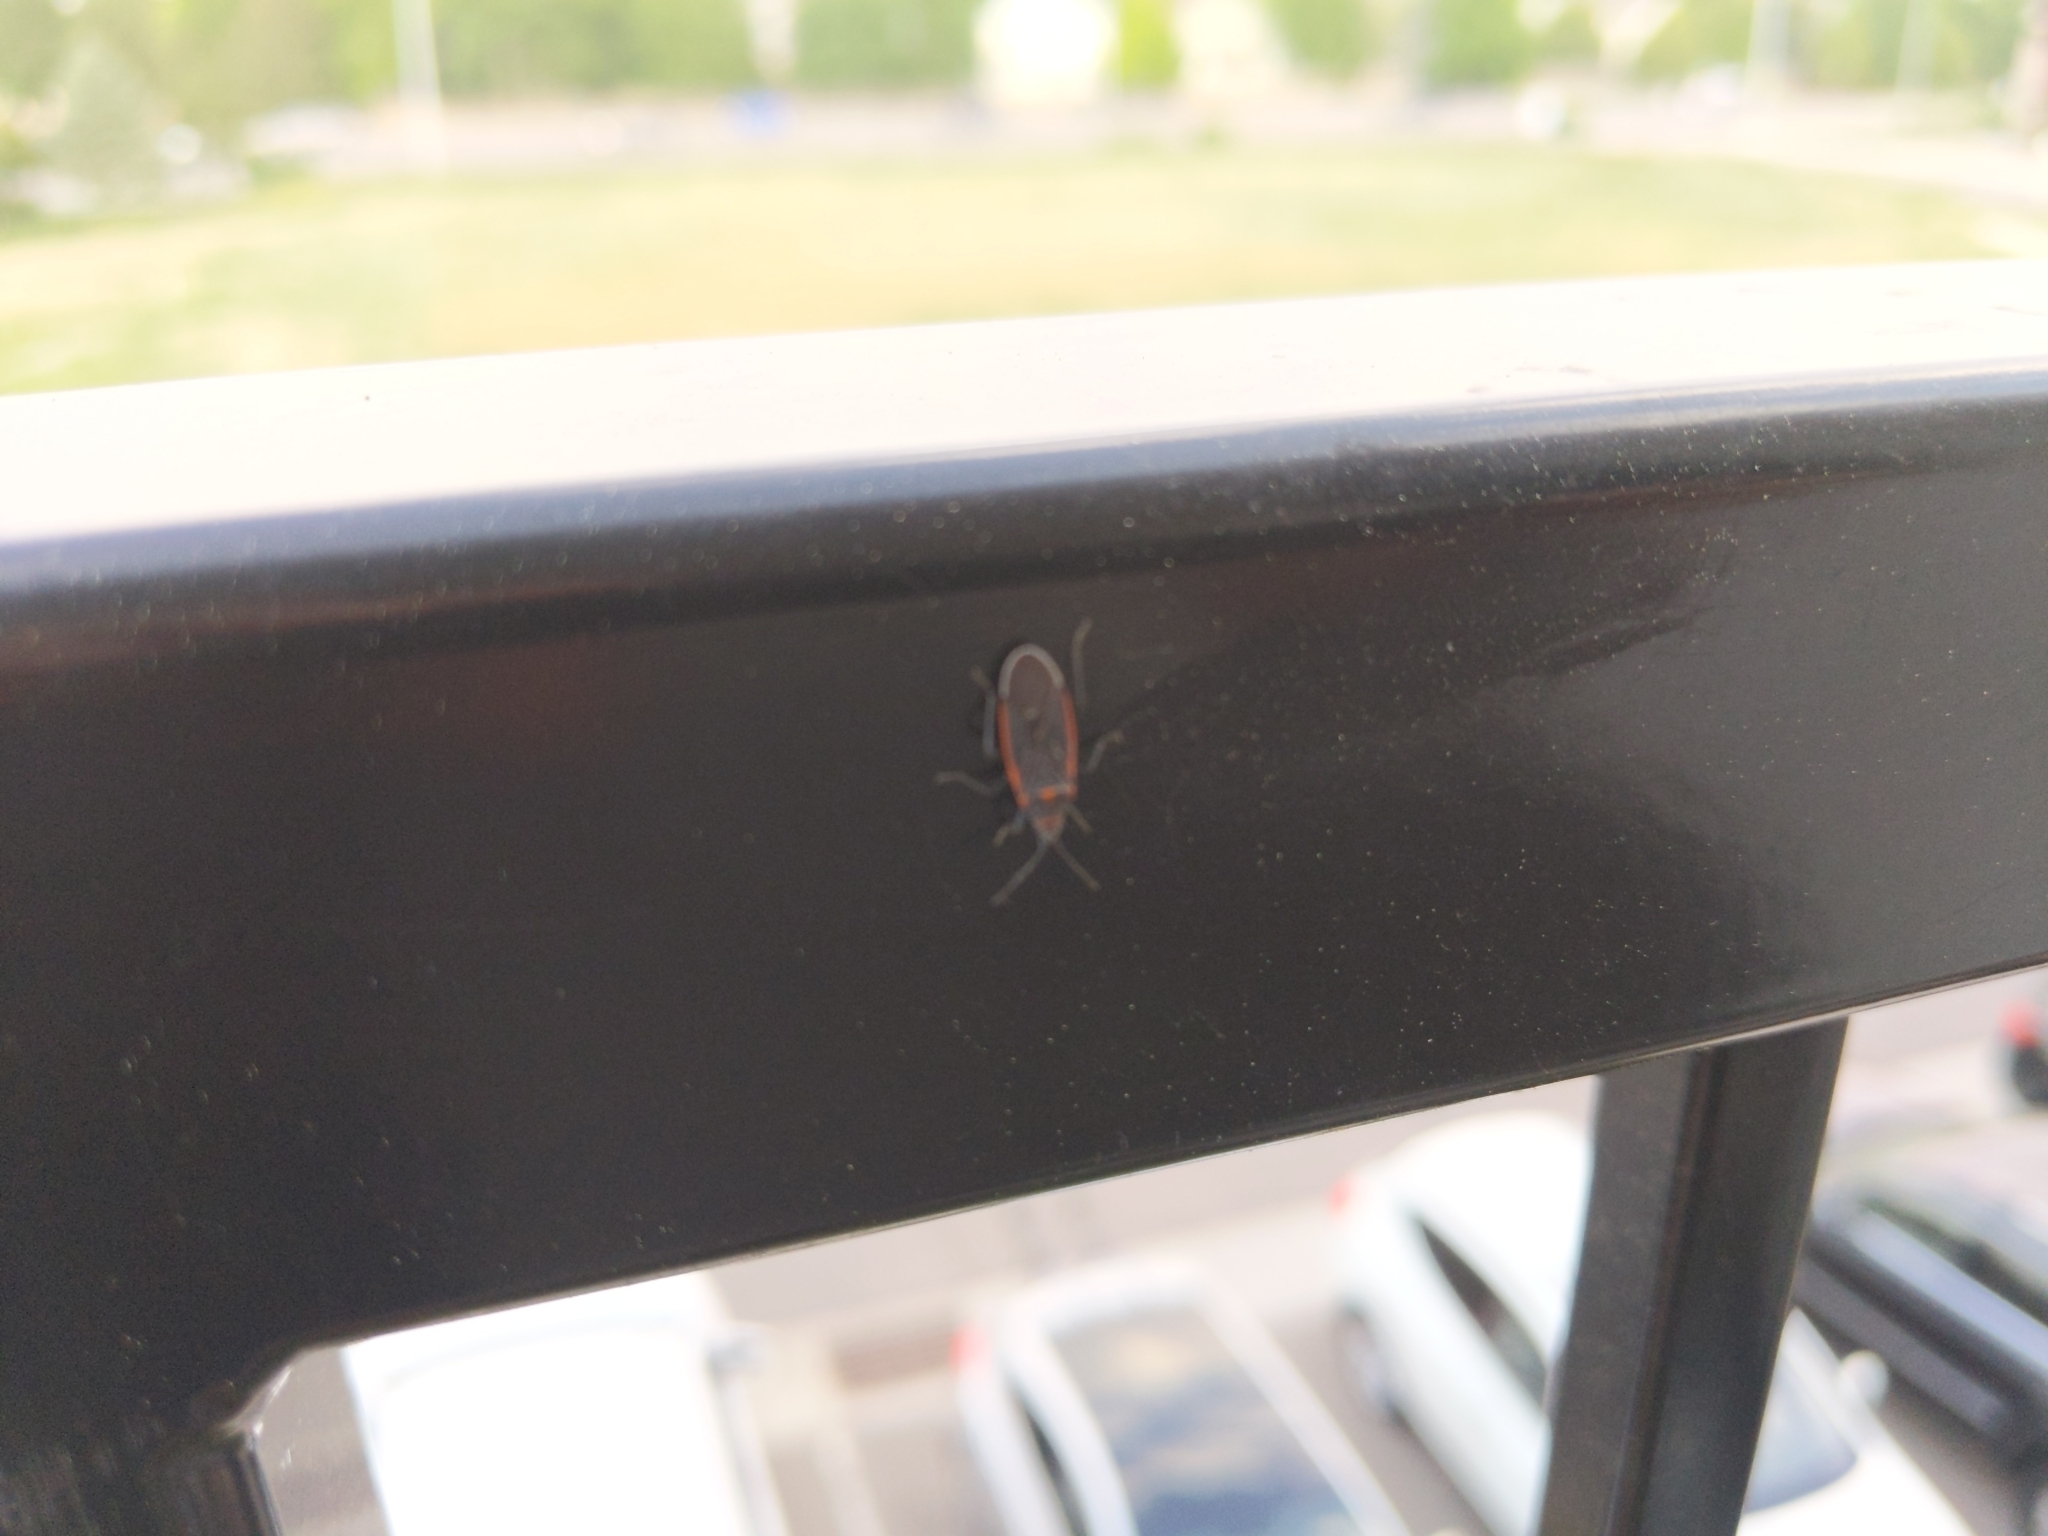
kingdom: Animalia
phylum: Arthropoda
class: Insecta
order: Hemiptera
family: Lygaeidae
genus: Melacoryphus
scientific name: Melacoryphus lateralis
